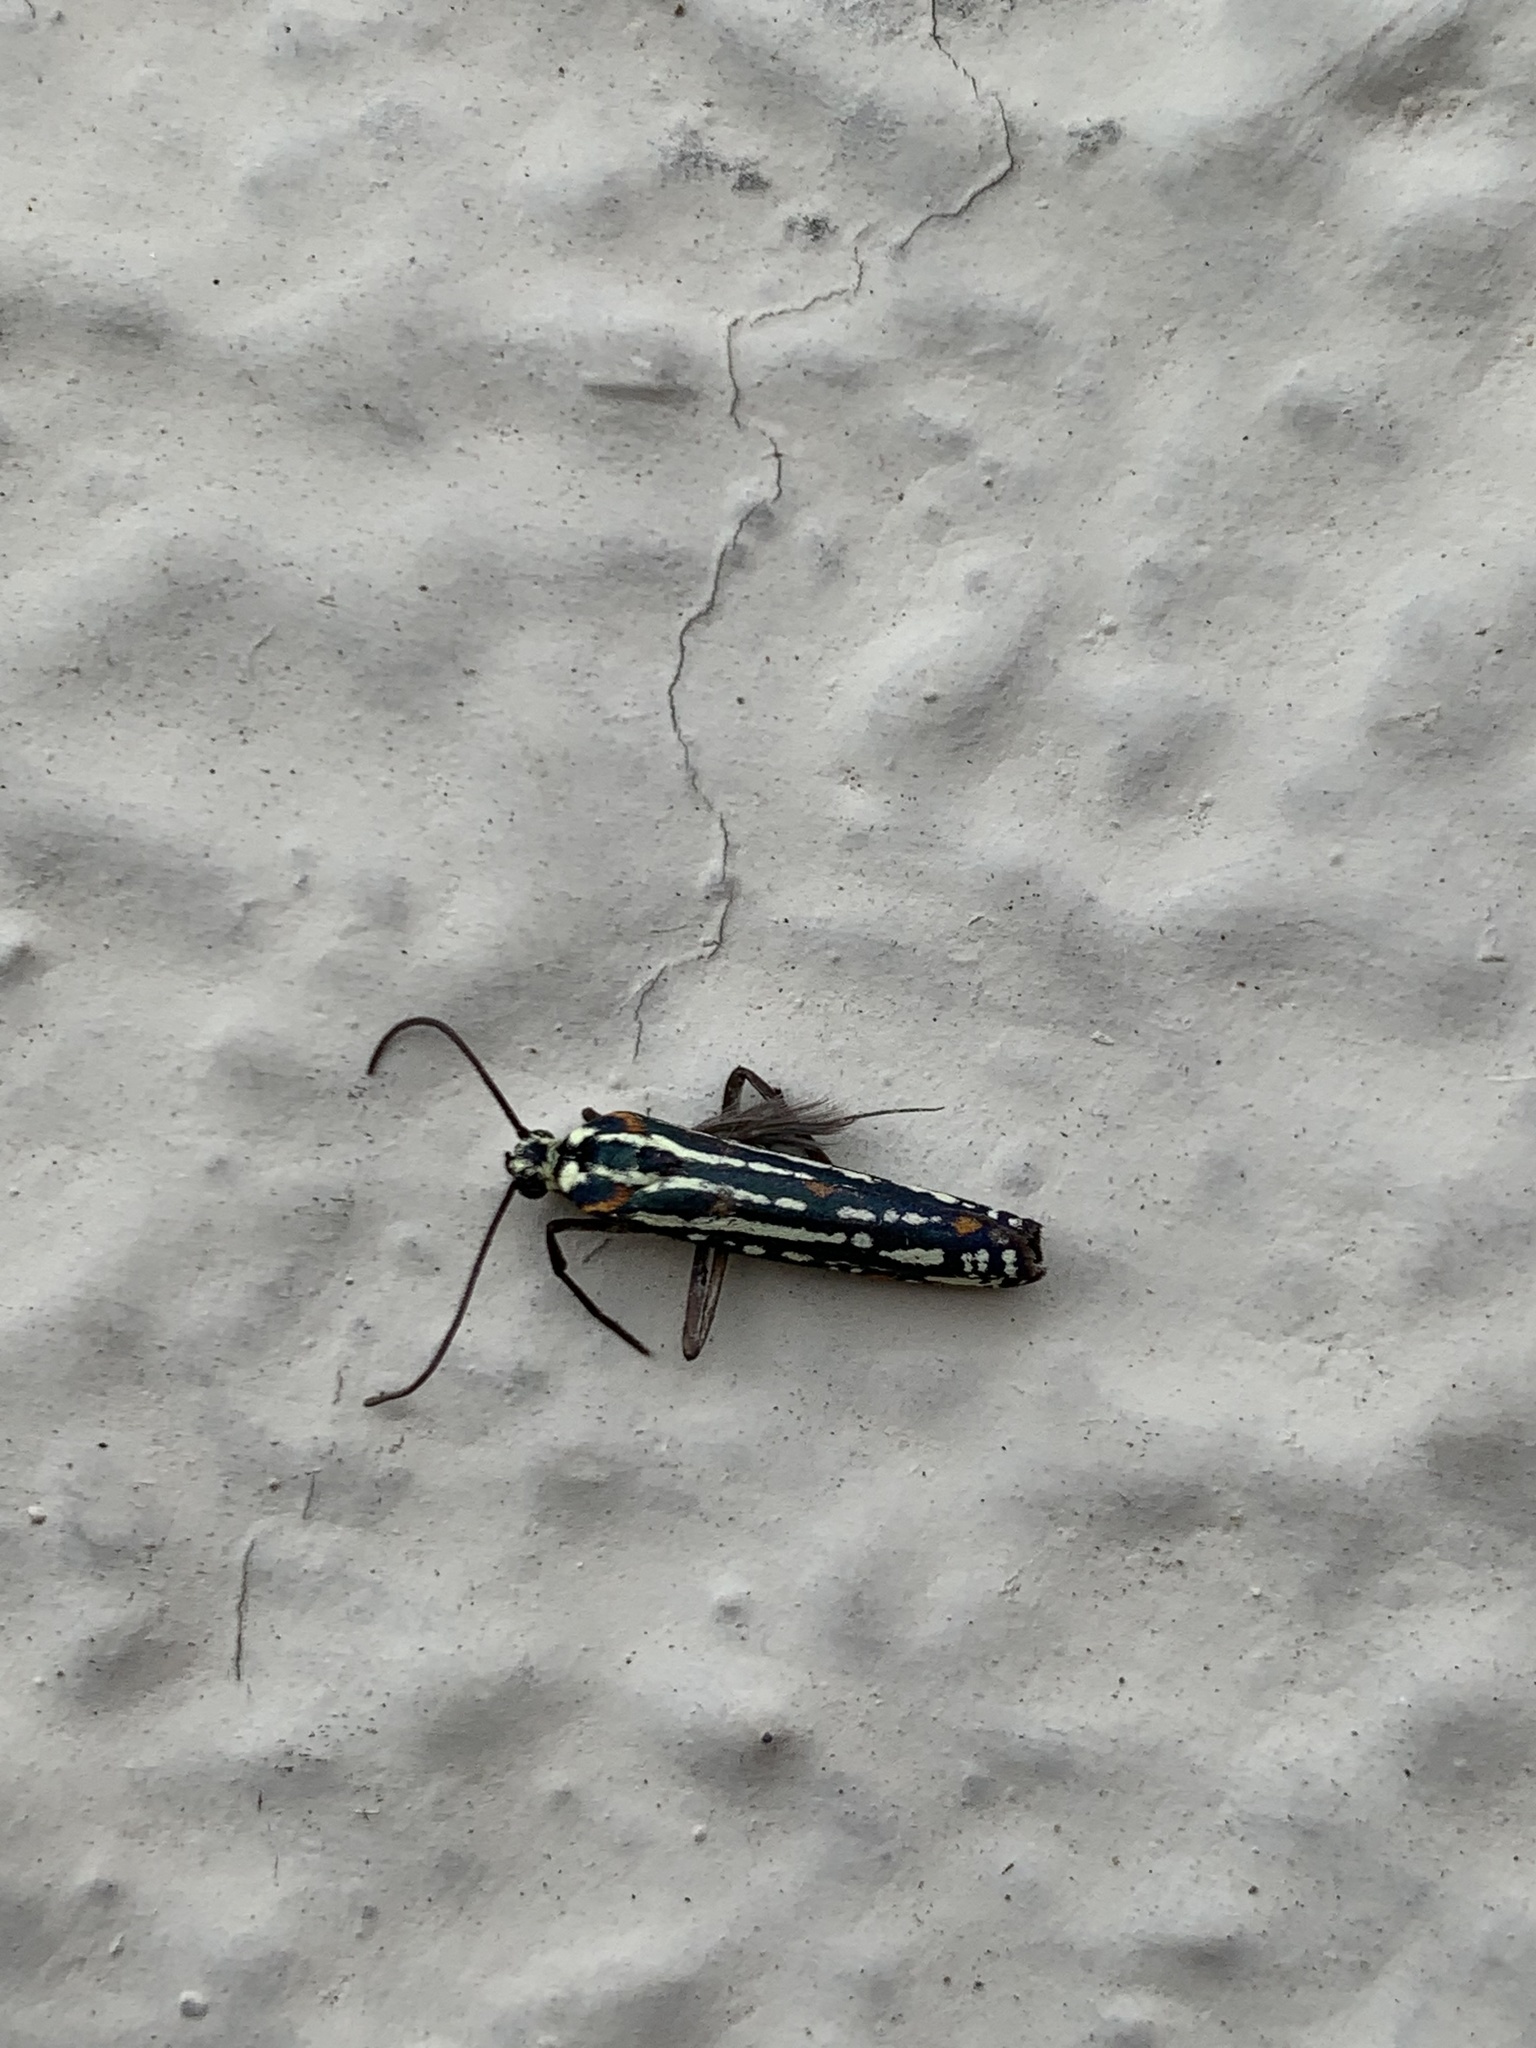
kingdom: Animalia
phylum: Arthropoda
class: Insecta
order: Lepidoptera
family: Attevidae
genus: Atteva
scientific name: Atteva hysginiella
